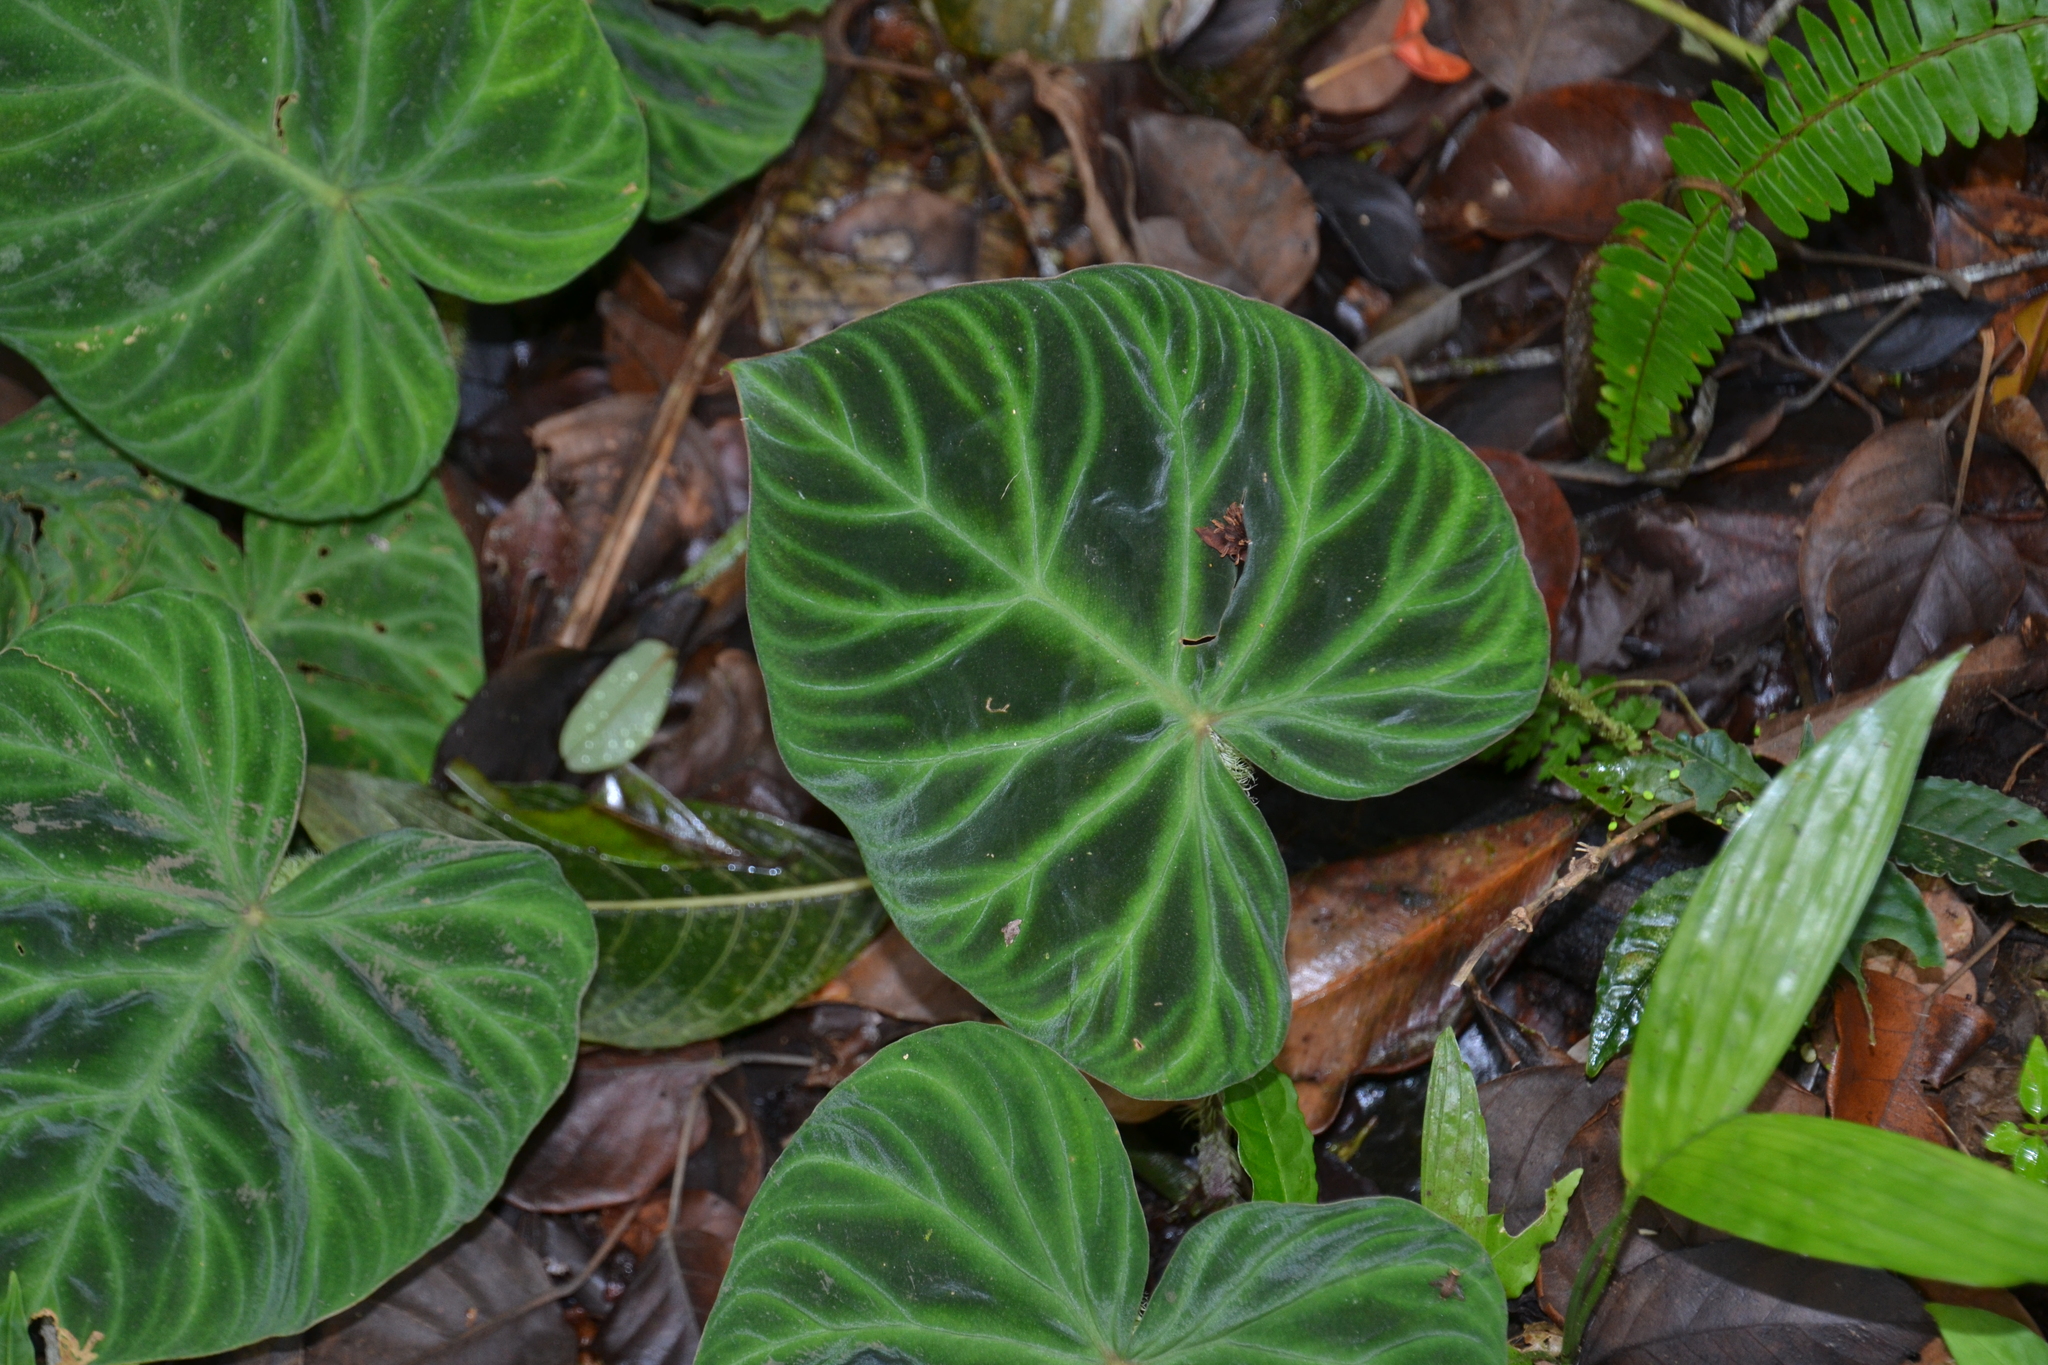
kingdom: Plantae
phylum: Tracheophyta
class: Liliopsida
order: Alismatales
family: Araceae
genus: Philodendron
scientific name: Philodendron verrucosum
